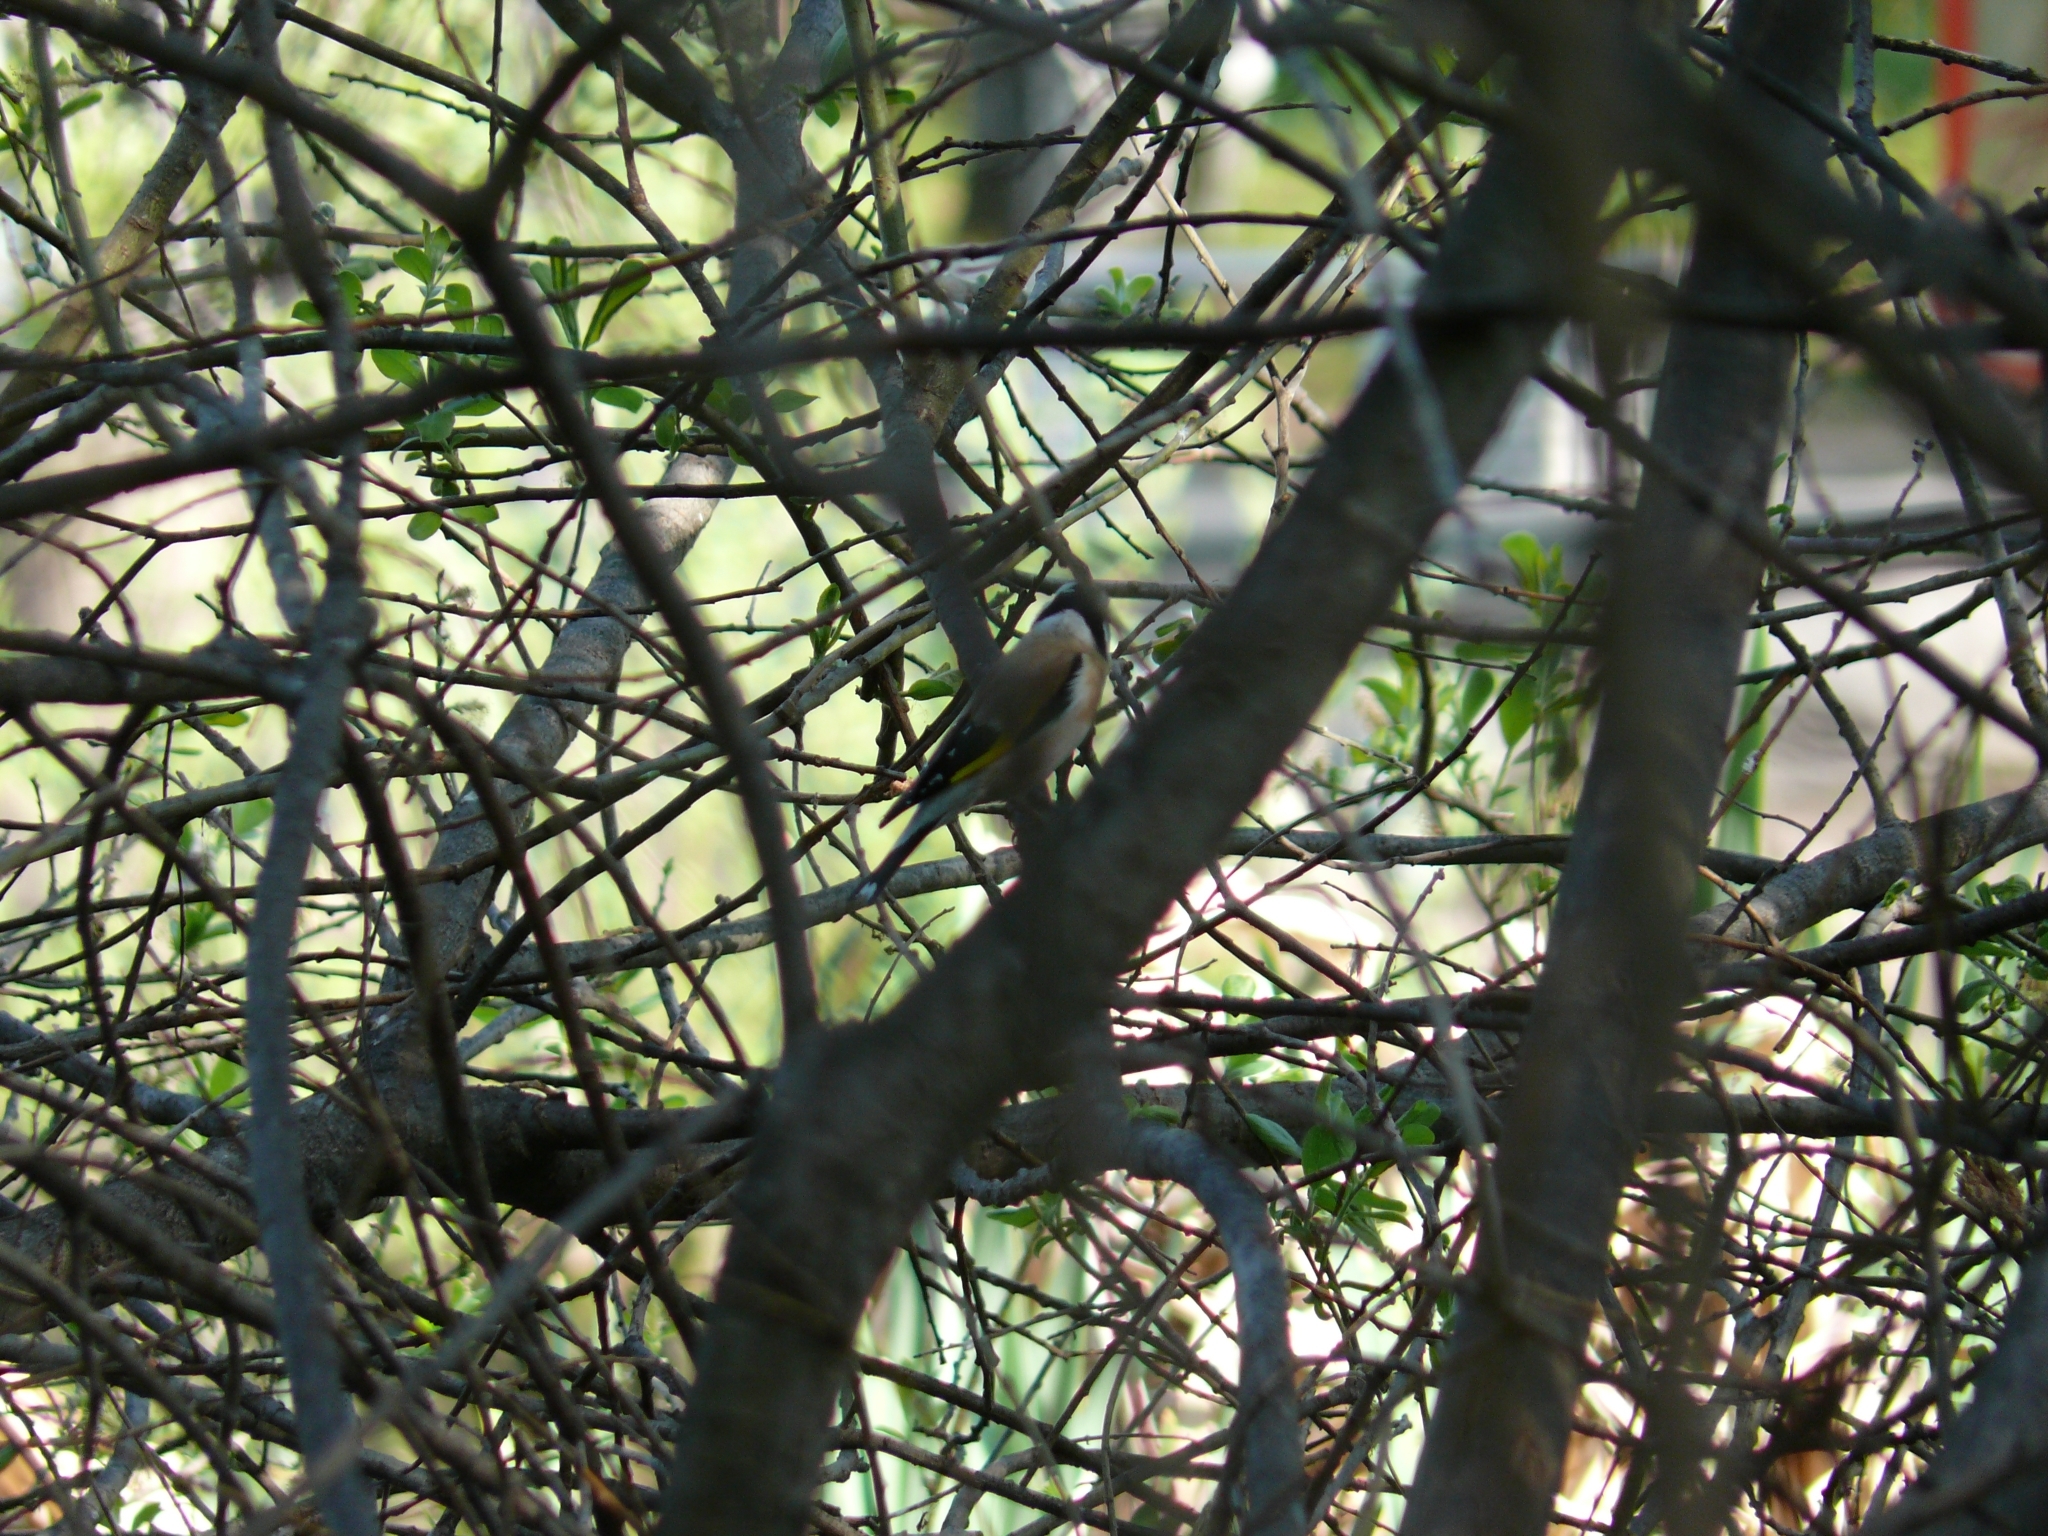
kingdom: Animalia
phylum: Chordata
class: Aves
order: Passeriformes
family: Fringillidae
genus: Carduelis
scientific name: Carduelis carduelis
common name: European goldfinch
